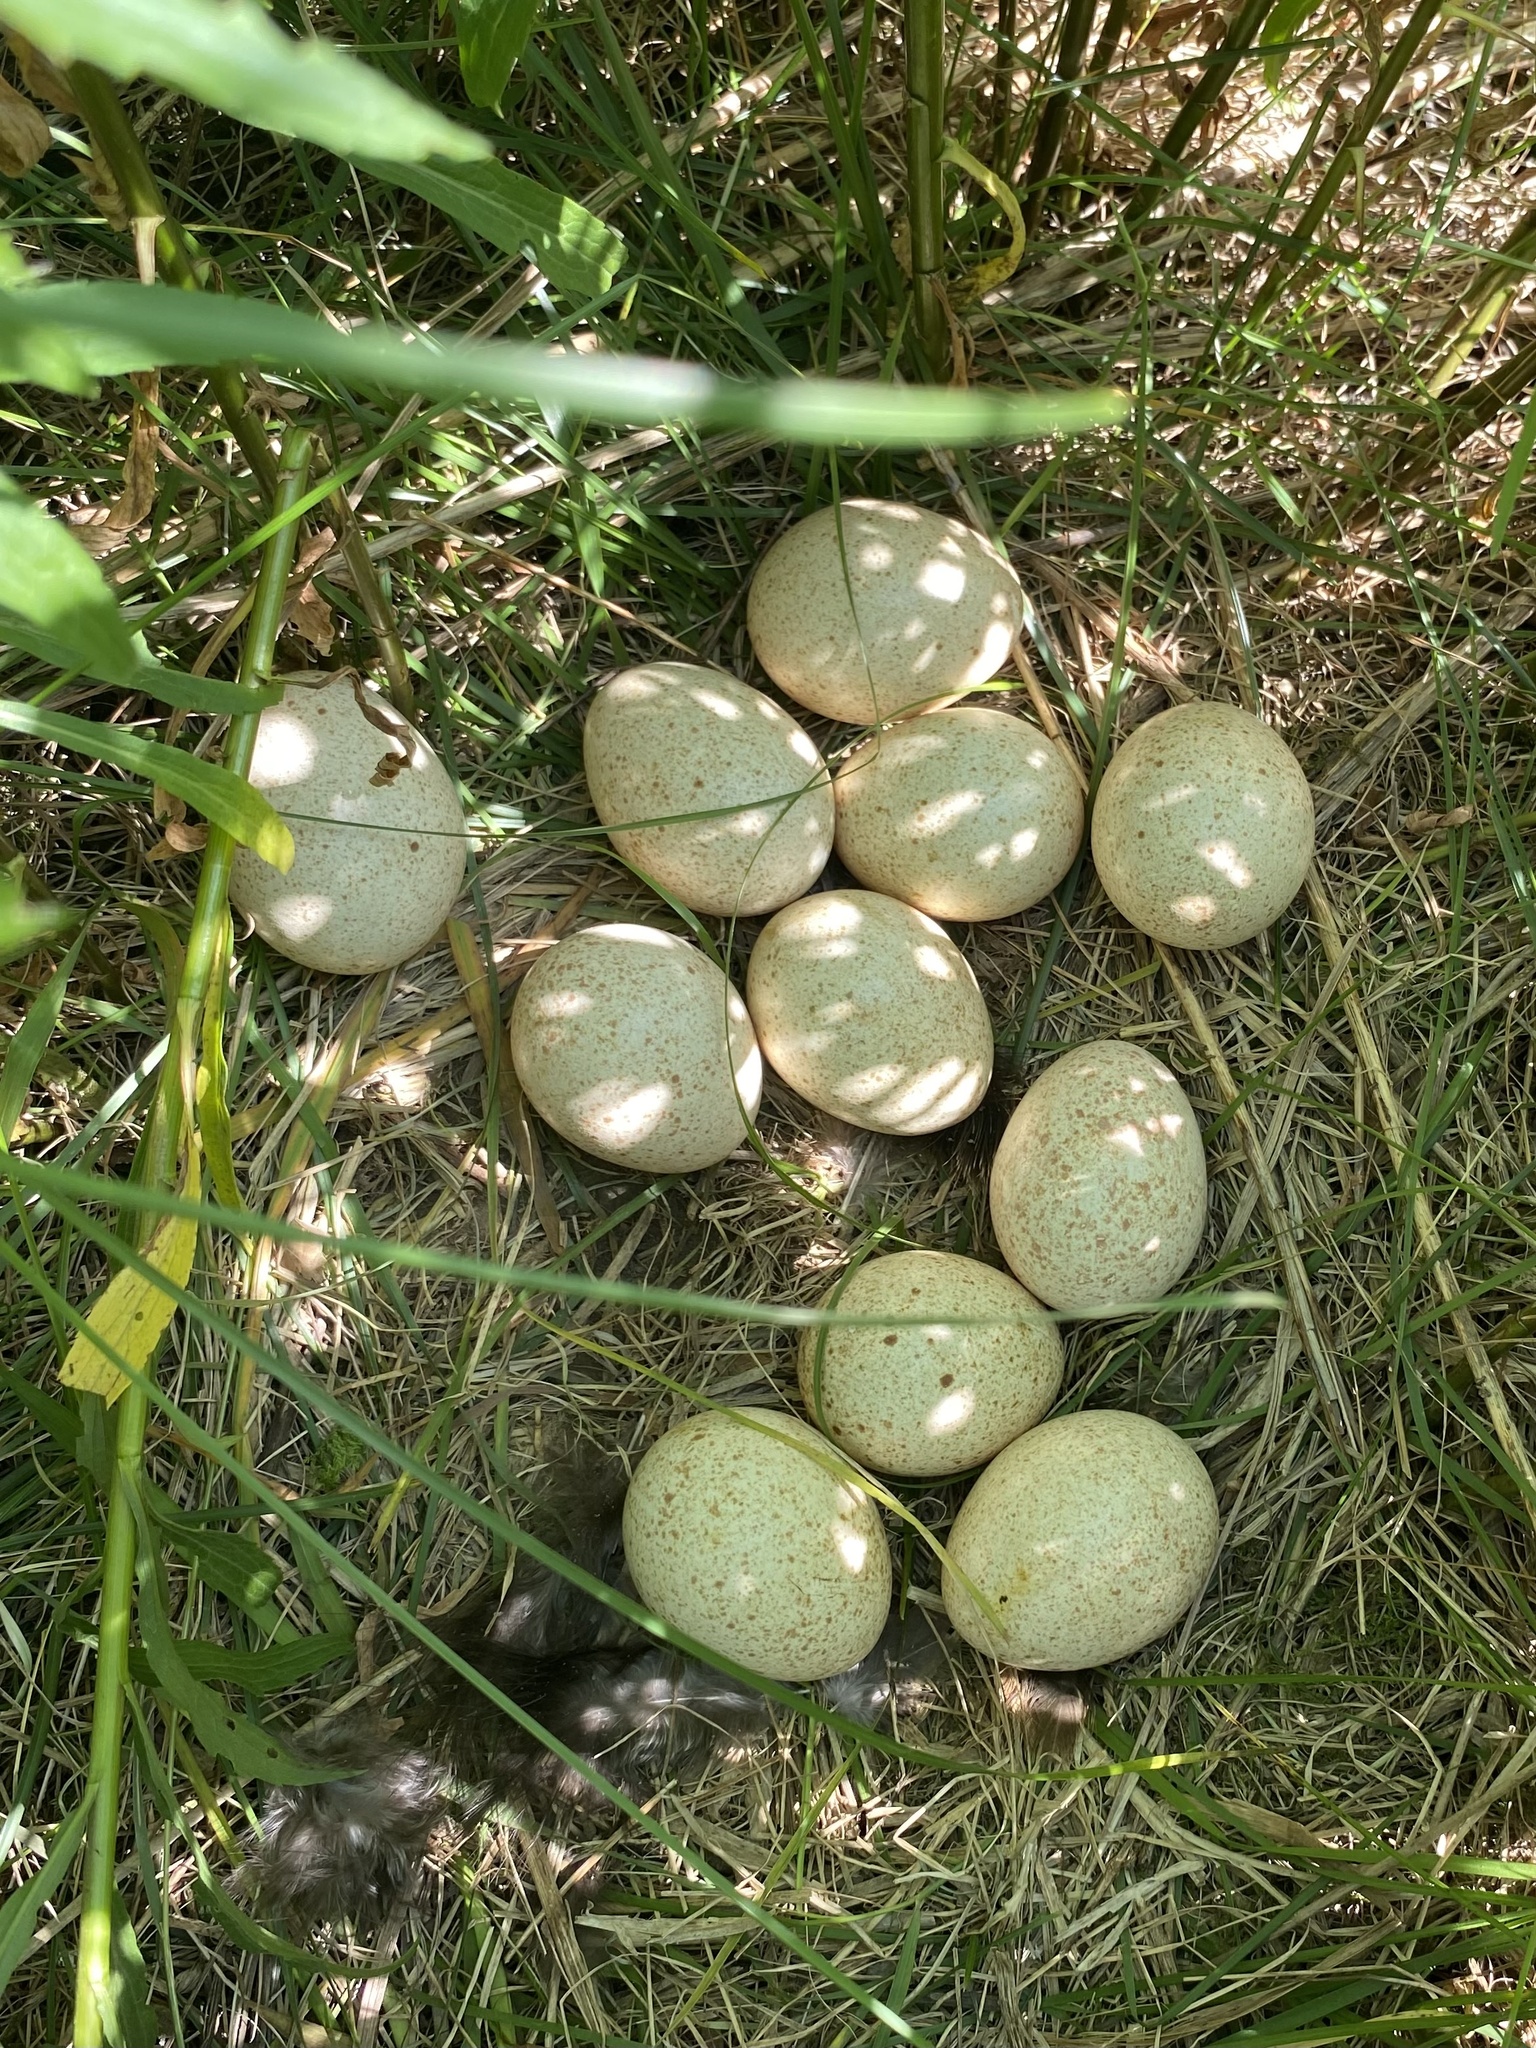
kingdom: Animalia
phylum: Chordata
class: Aves
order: Galliformes
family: Phasianidae
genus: Meleagris
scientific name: Meleagris gallopavo
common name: Wild turkey
